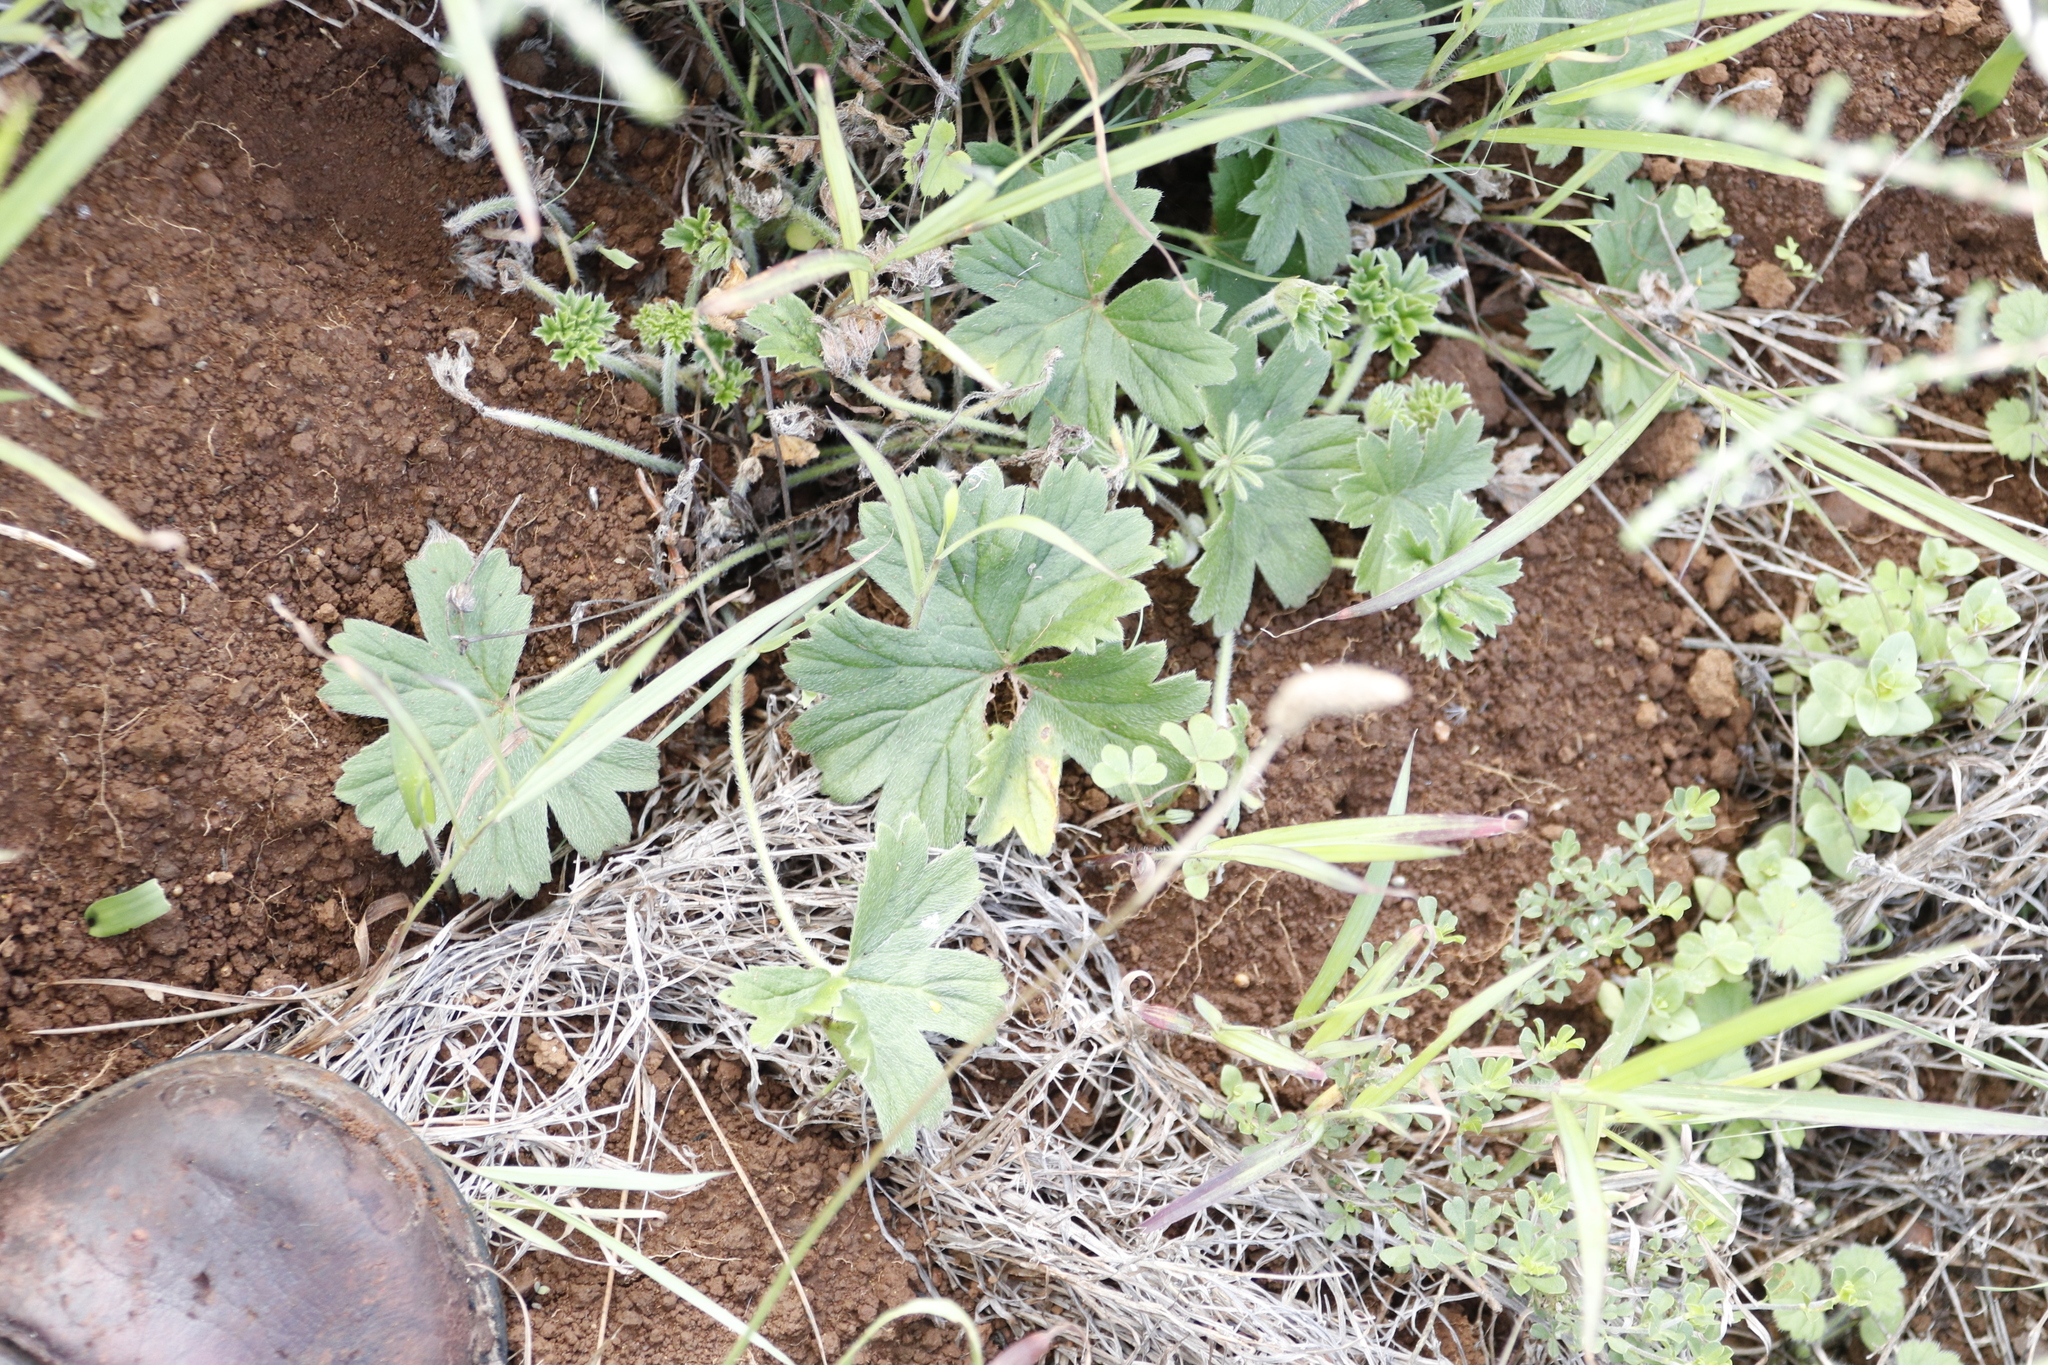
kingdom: Plantae
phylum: Tracheophyta
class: Magnoliopsida
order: Geraniales
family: Geraniaceae
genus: Pelargonium
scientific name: Pelargonium alchemilloides
